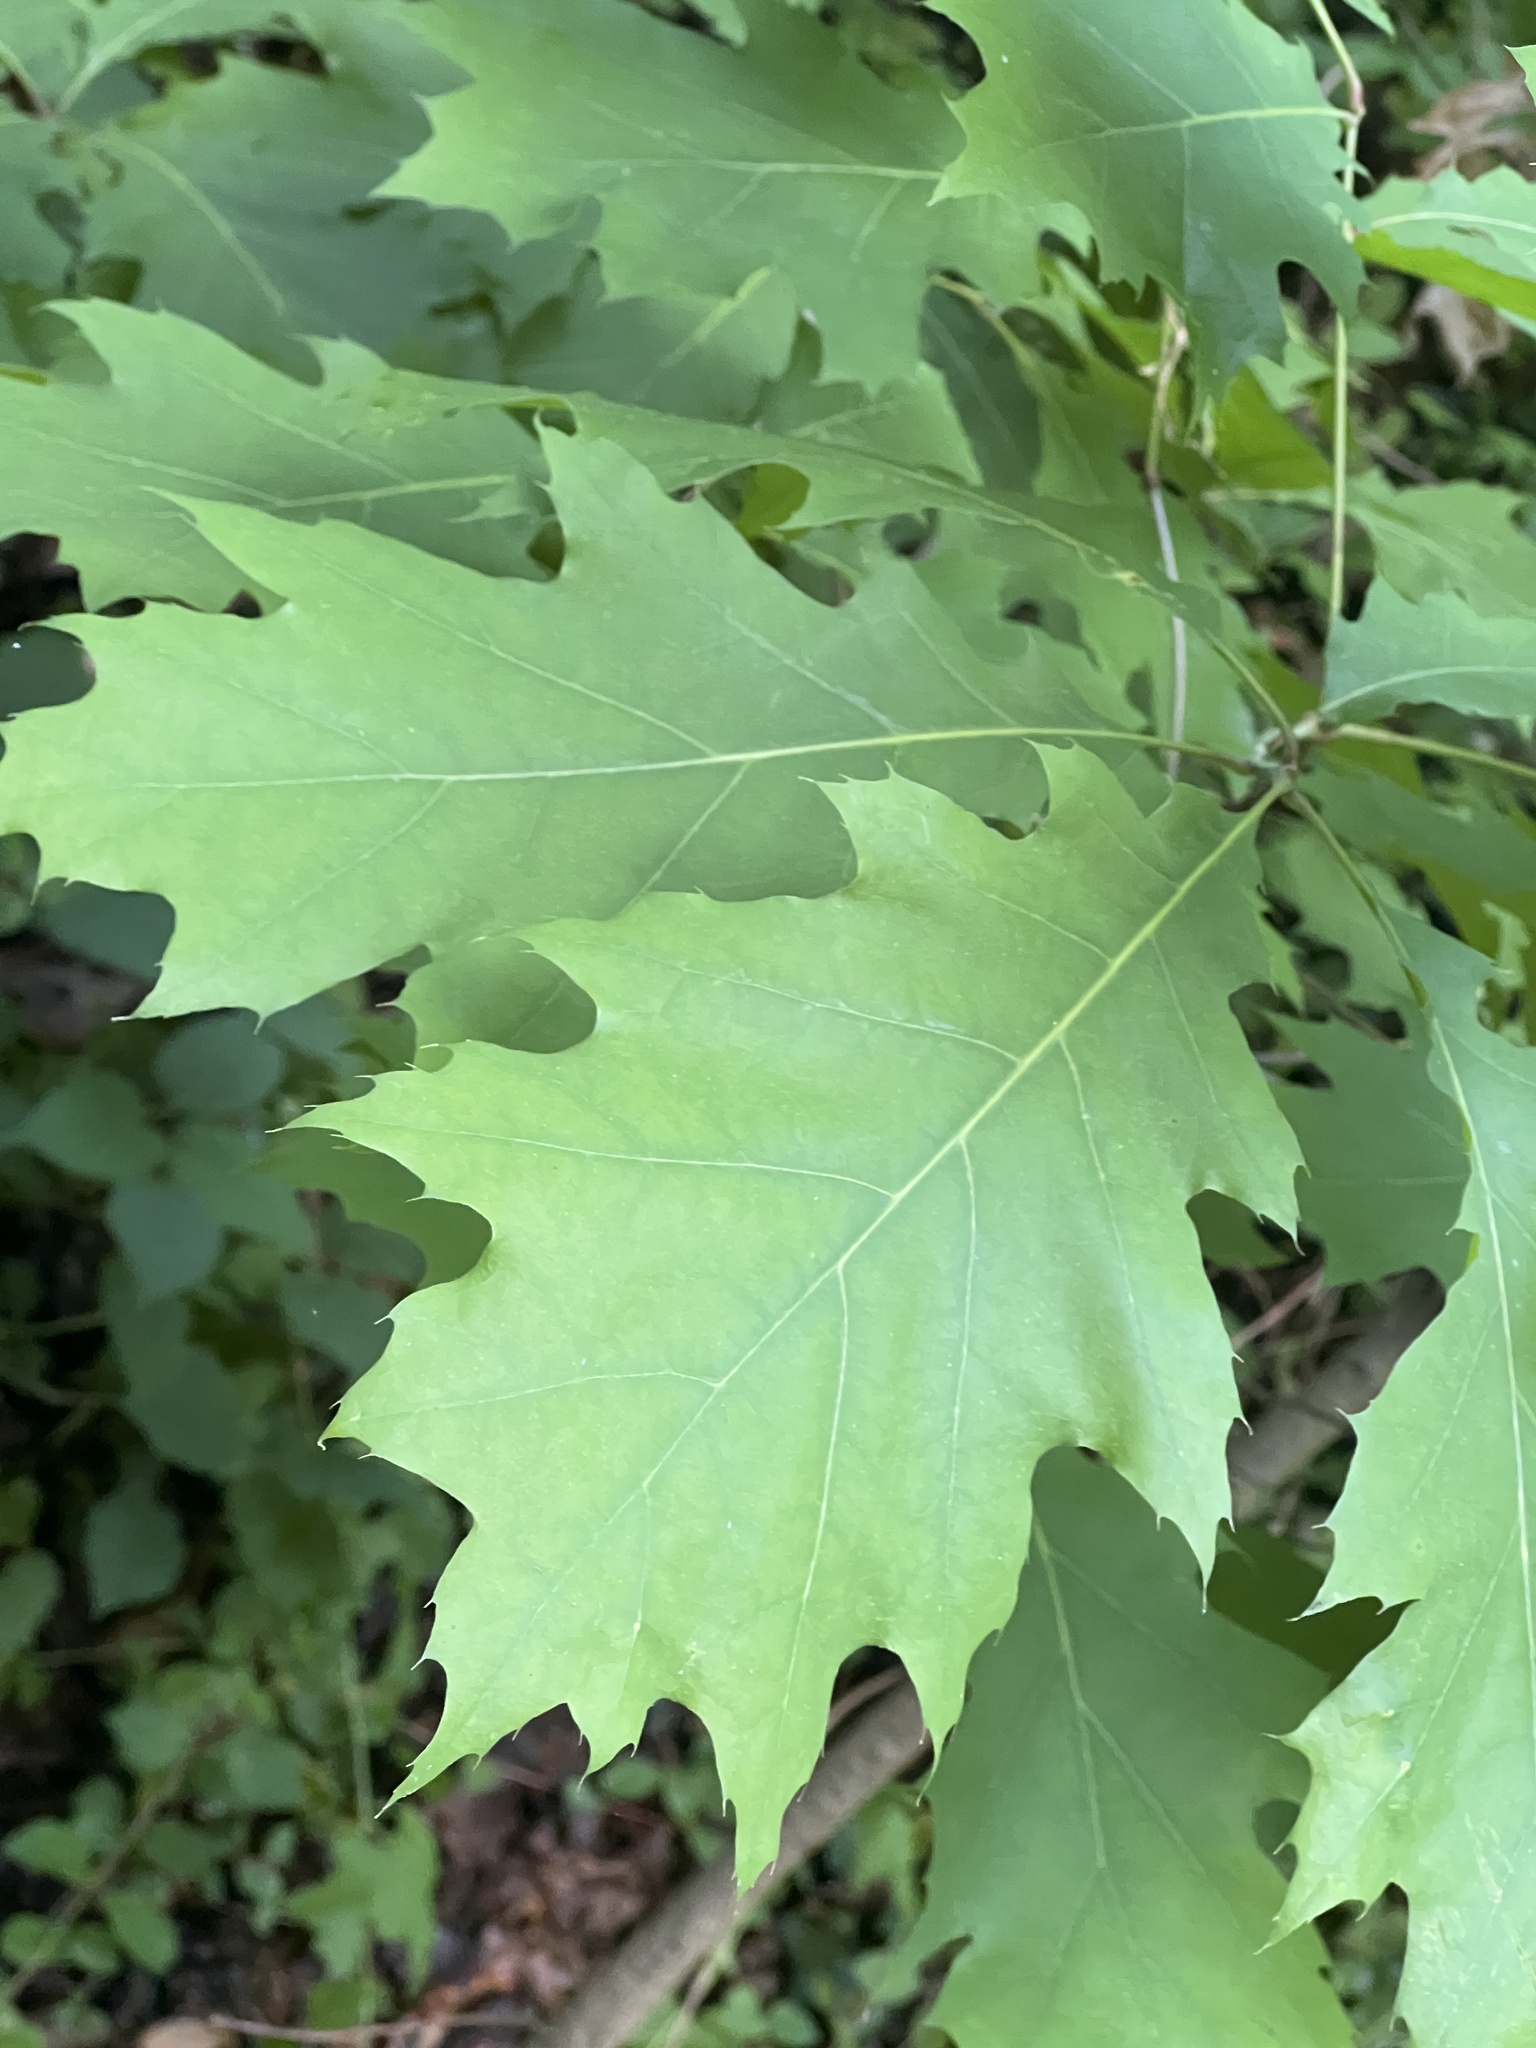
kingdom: Plantae
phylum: Tracheophyta
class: Magnoliopsida
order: Fagales
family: Fagaceae
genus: Quercus
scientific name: Quercus rubra
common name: Red oak
